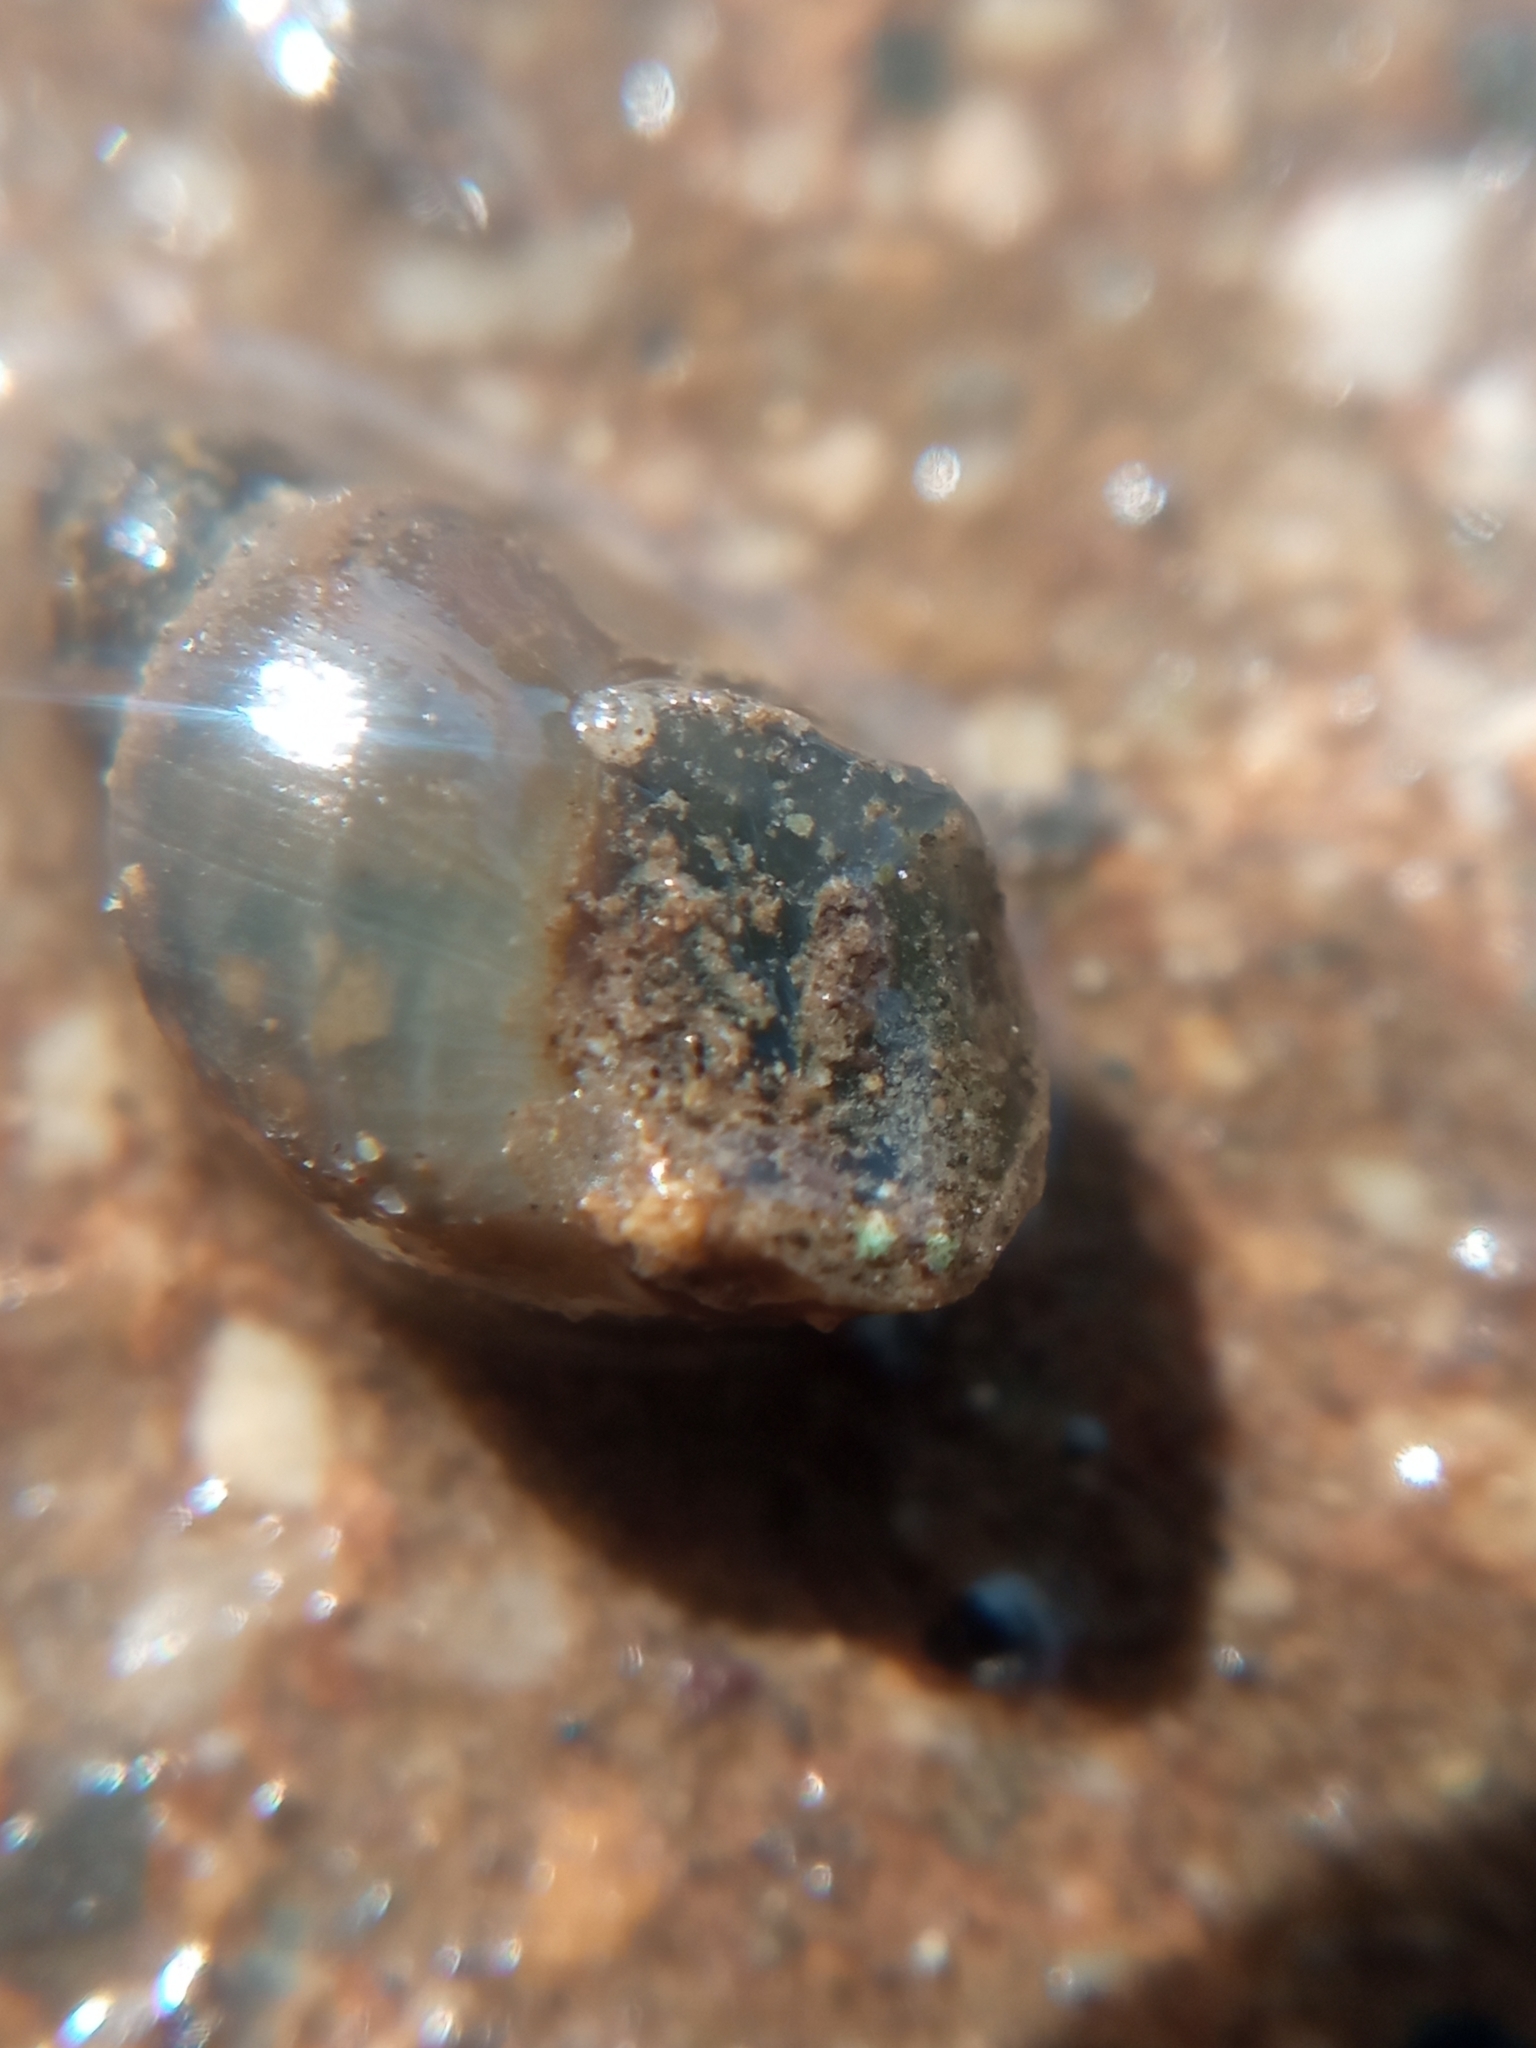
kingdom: Animalia
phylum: Mollusca
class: Gastropoda
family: Lymnaeidae
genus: Galba
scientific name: Galba truncatula
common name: Dwarf pond snail
